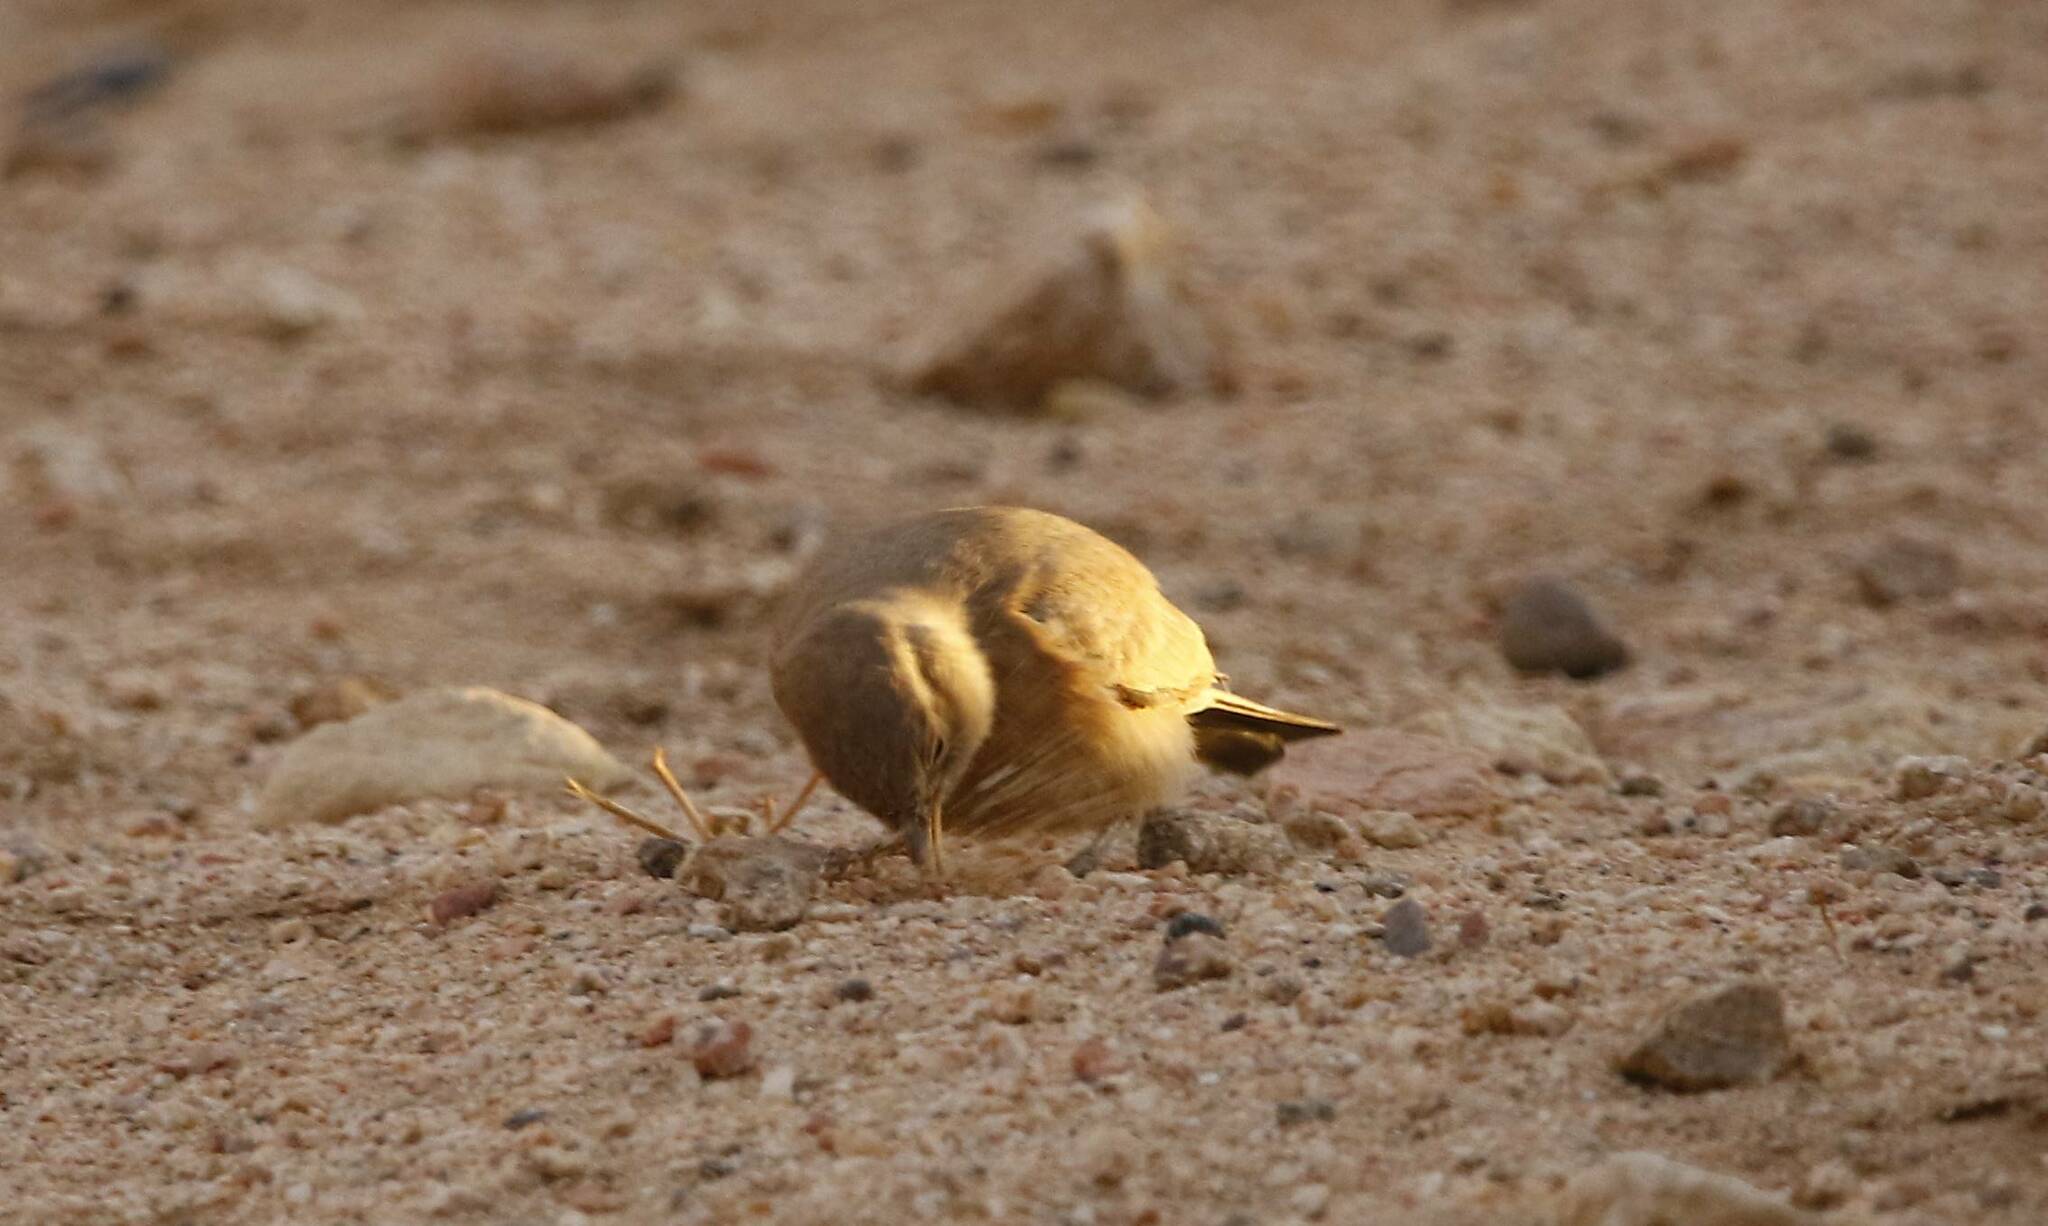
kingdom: Animalia
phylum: Chordata
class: Aves
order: Passeriformes
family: Alaudidae
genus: Ammomanes
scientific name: Ammomanes deserti
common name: Desert lark
